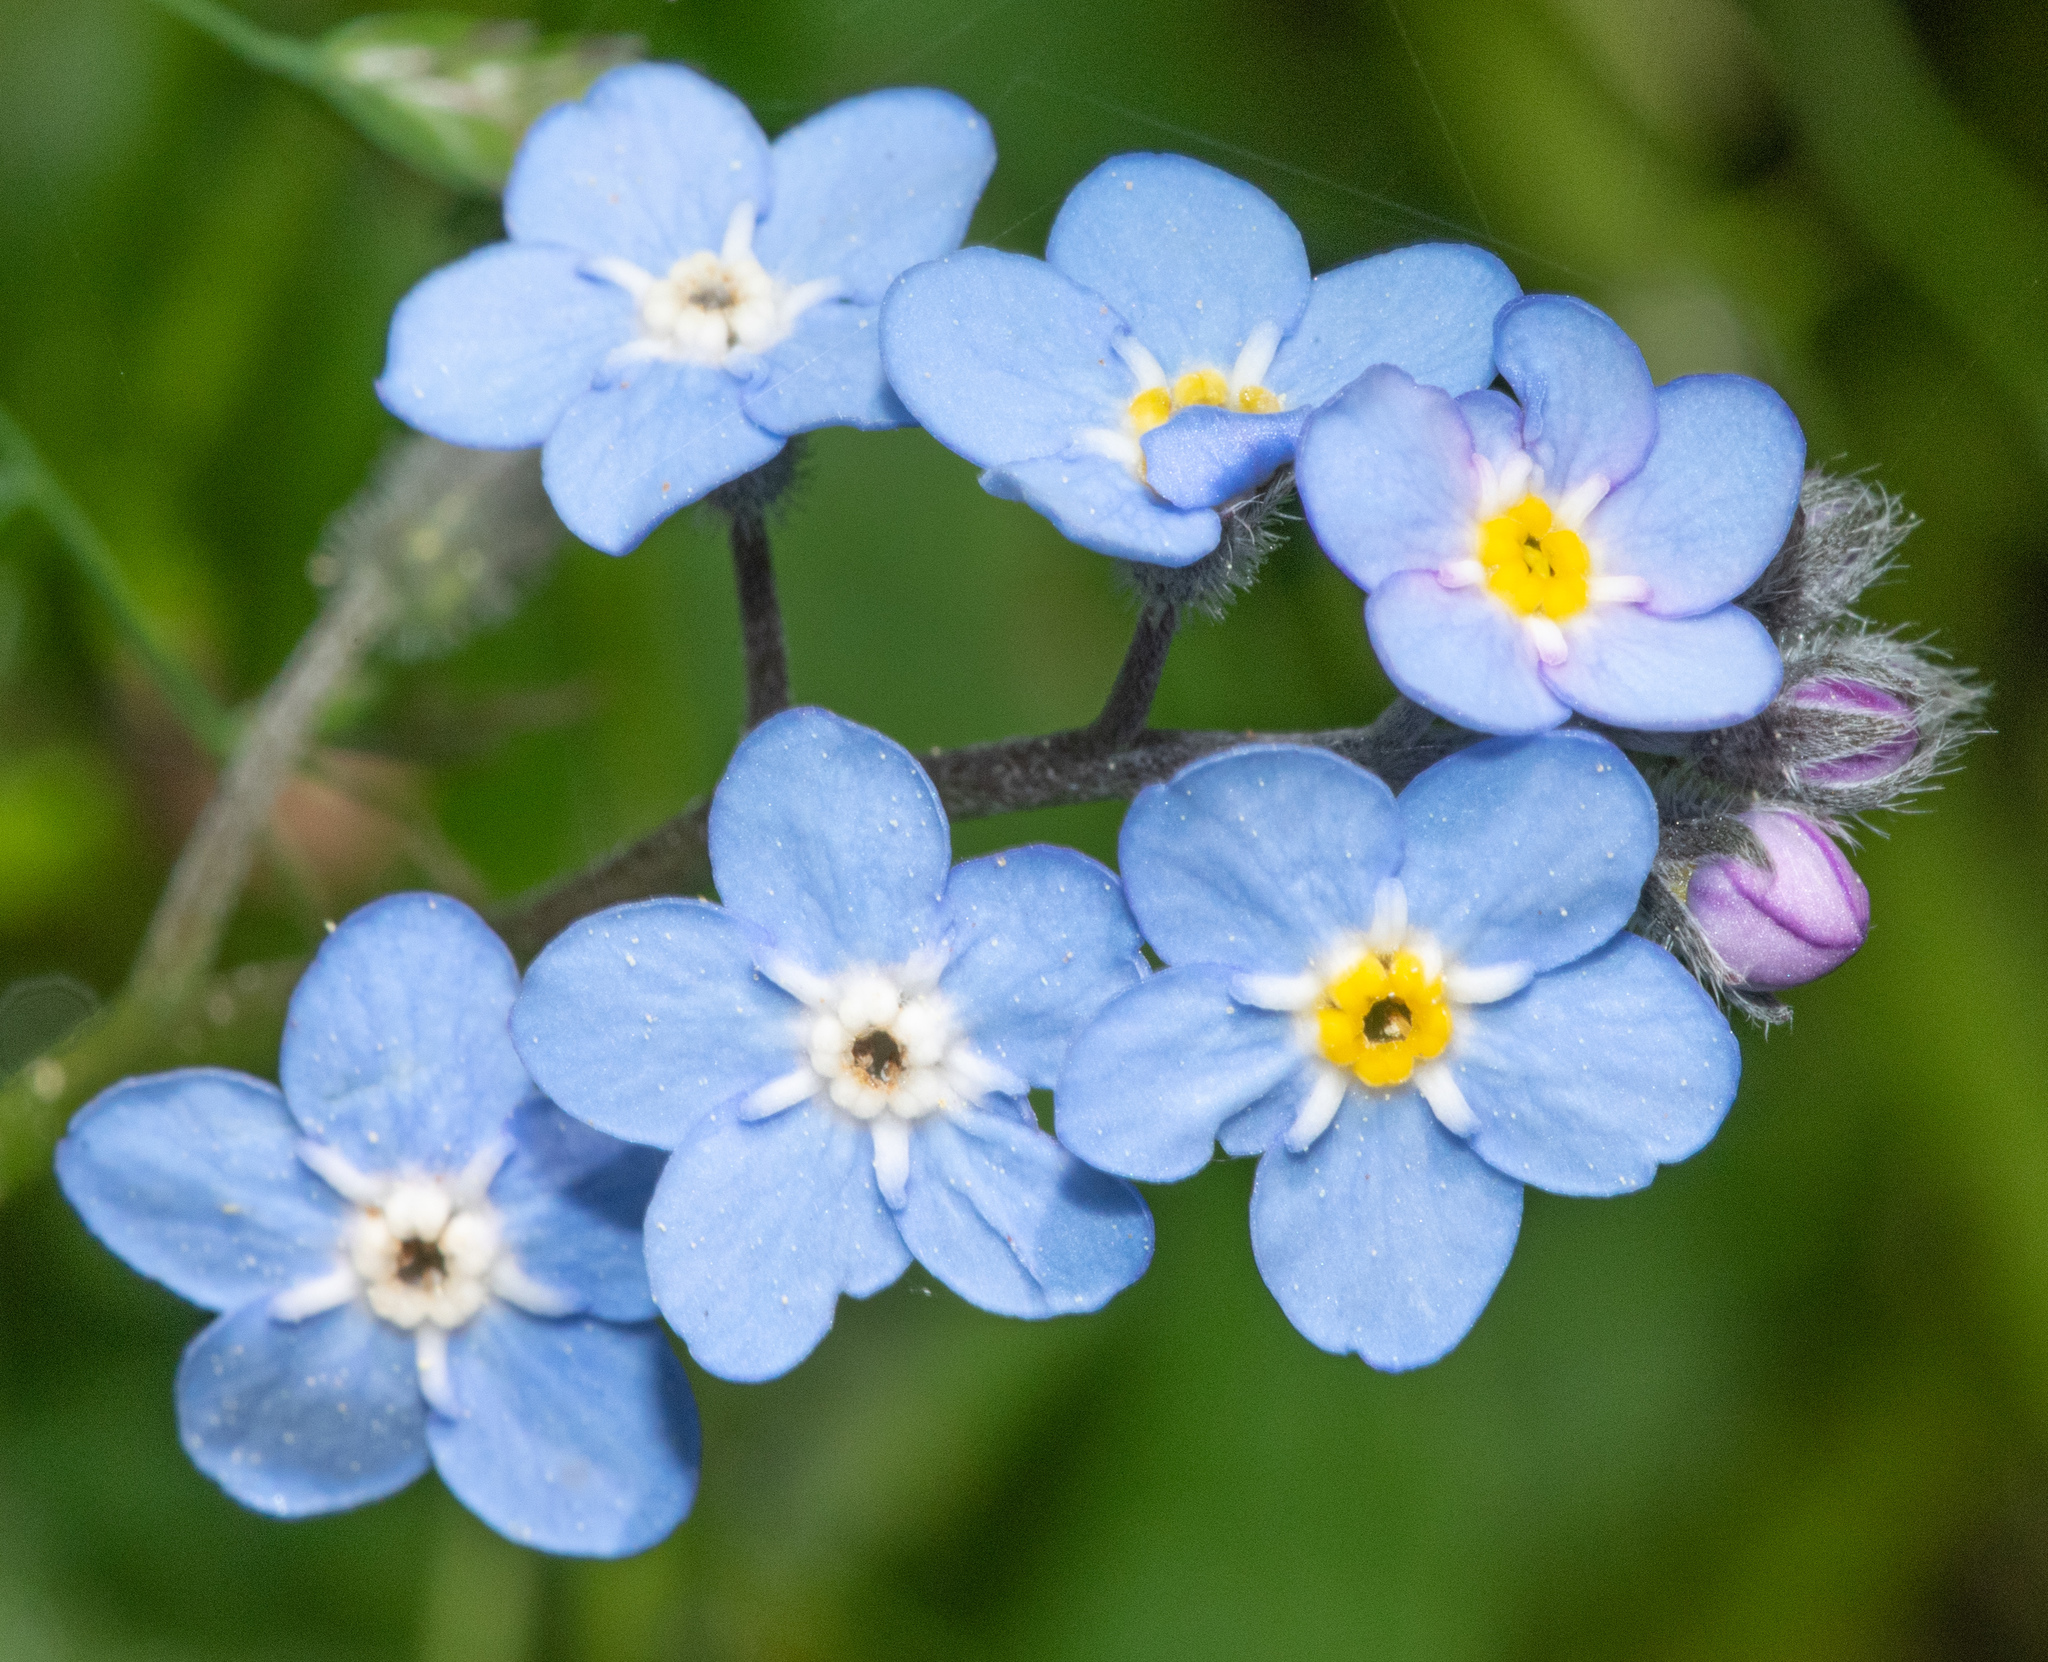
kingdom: Plantae
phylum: Tracheophyta
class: Magnoliopsida
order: Boraginales
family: Boraginaceae
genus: Myosotis
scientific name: Myosotis latifolia
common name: Broadleaf forget-me-not
